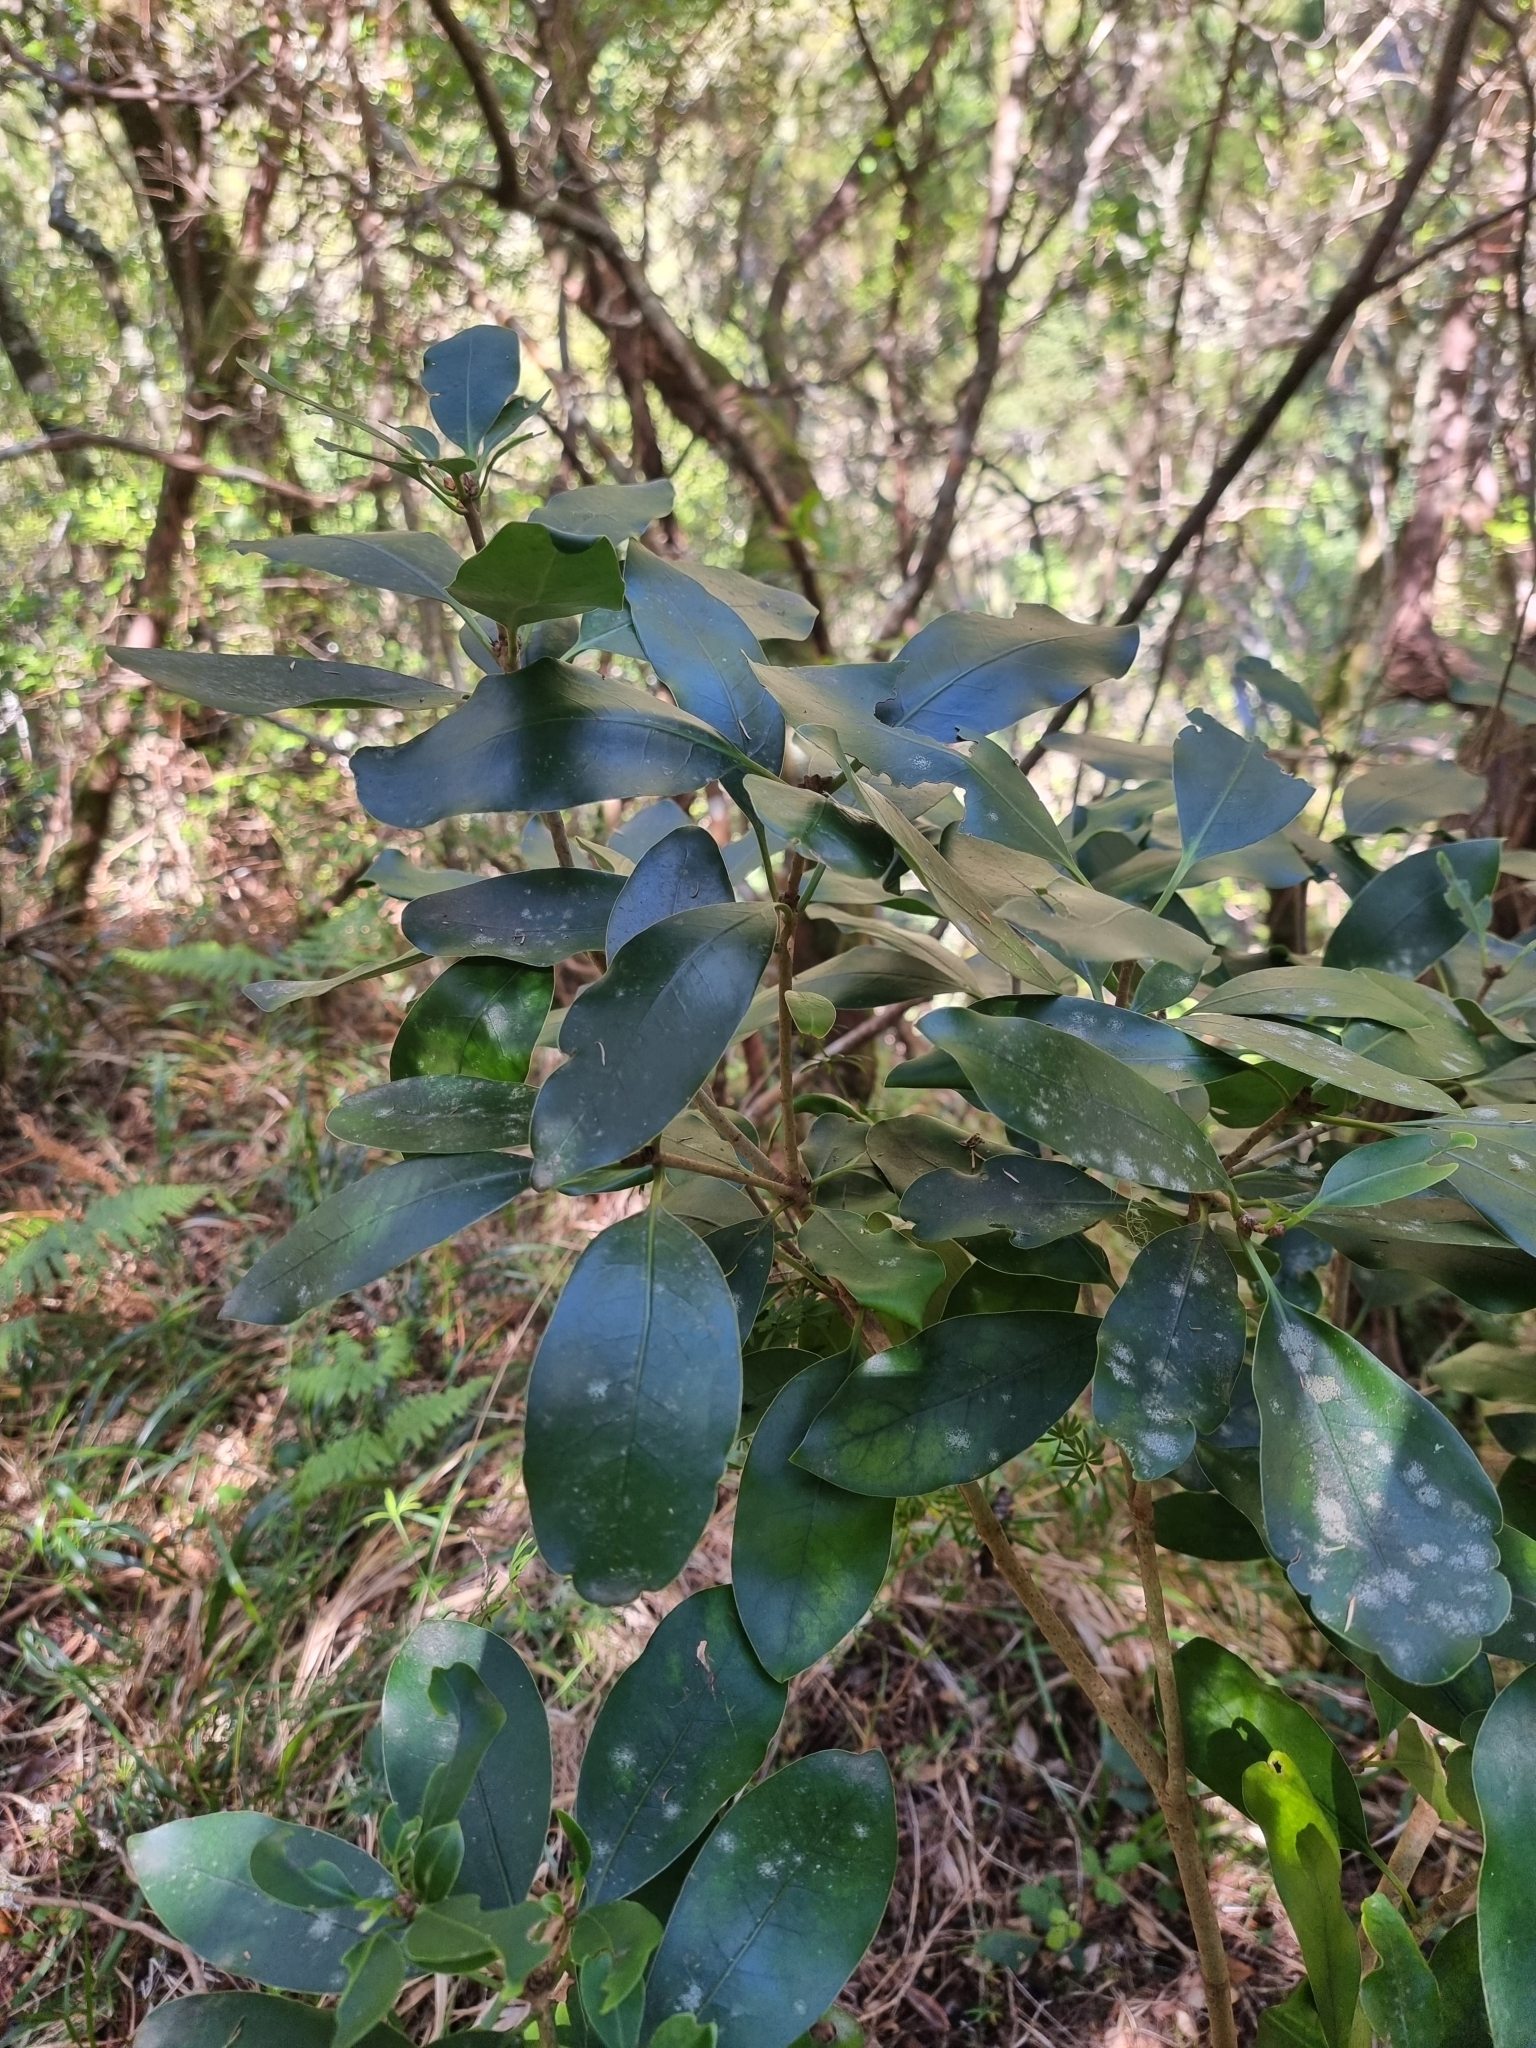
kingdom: Plantae
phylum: Tracheophyta
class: Magnoliopsida
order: Apiales
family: Pittosporaceae
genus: Pittosporum
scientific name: Pittosporum coriaceum
